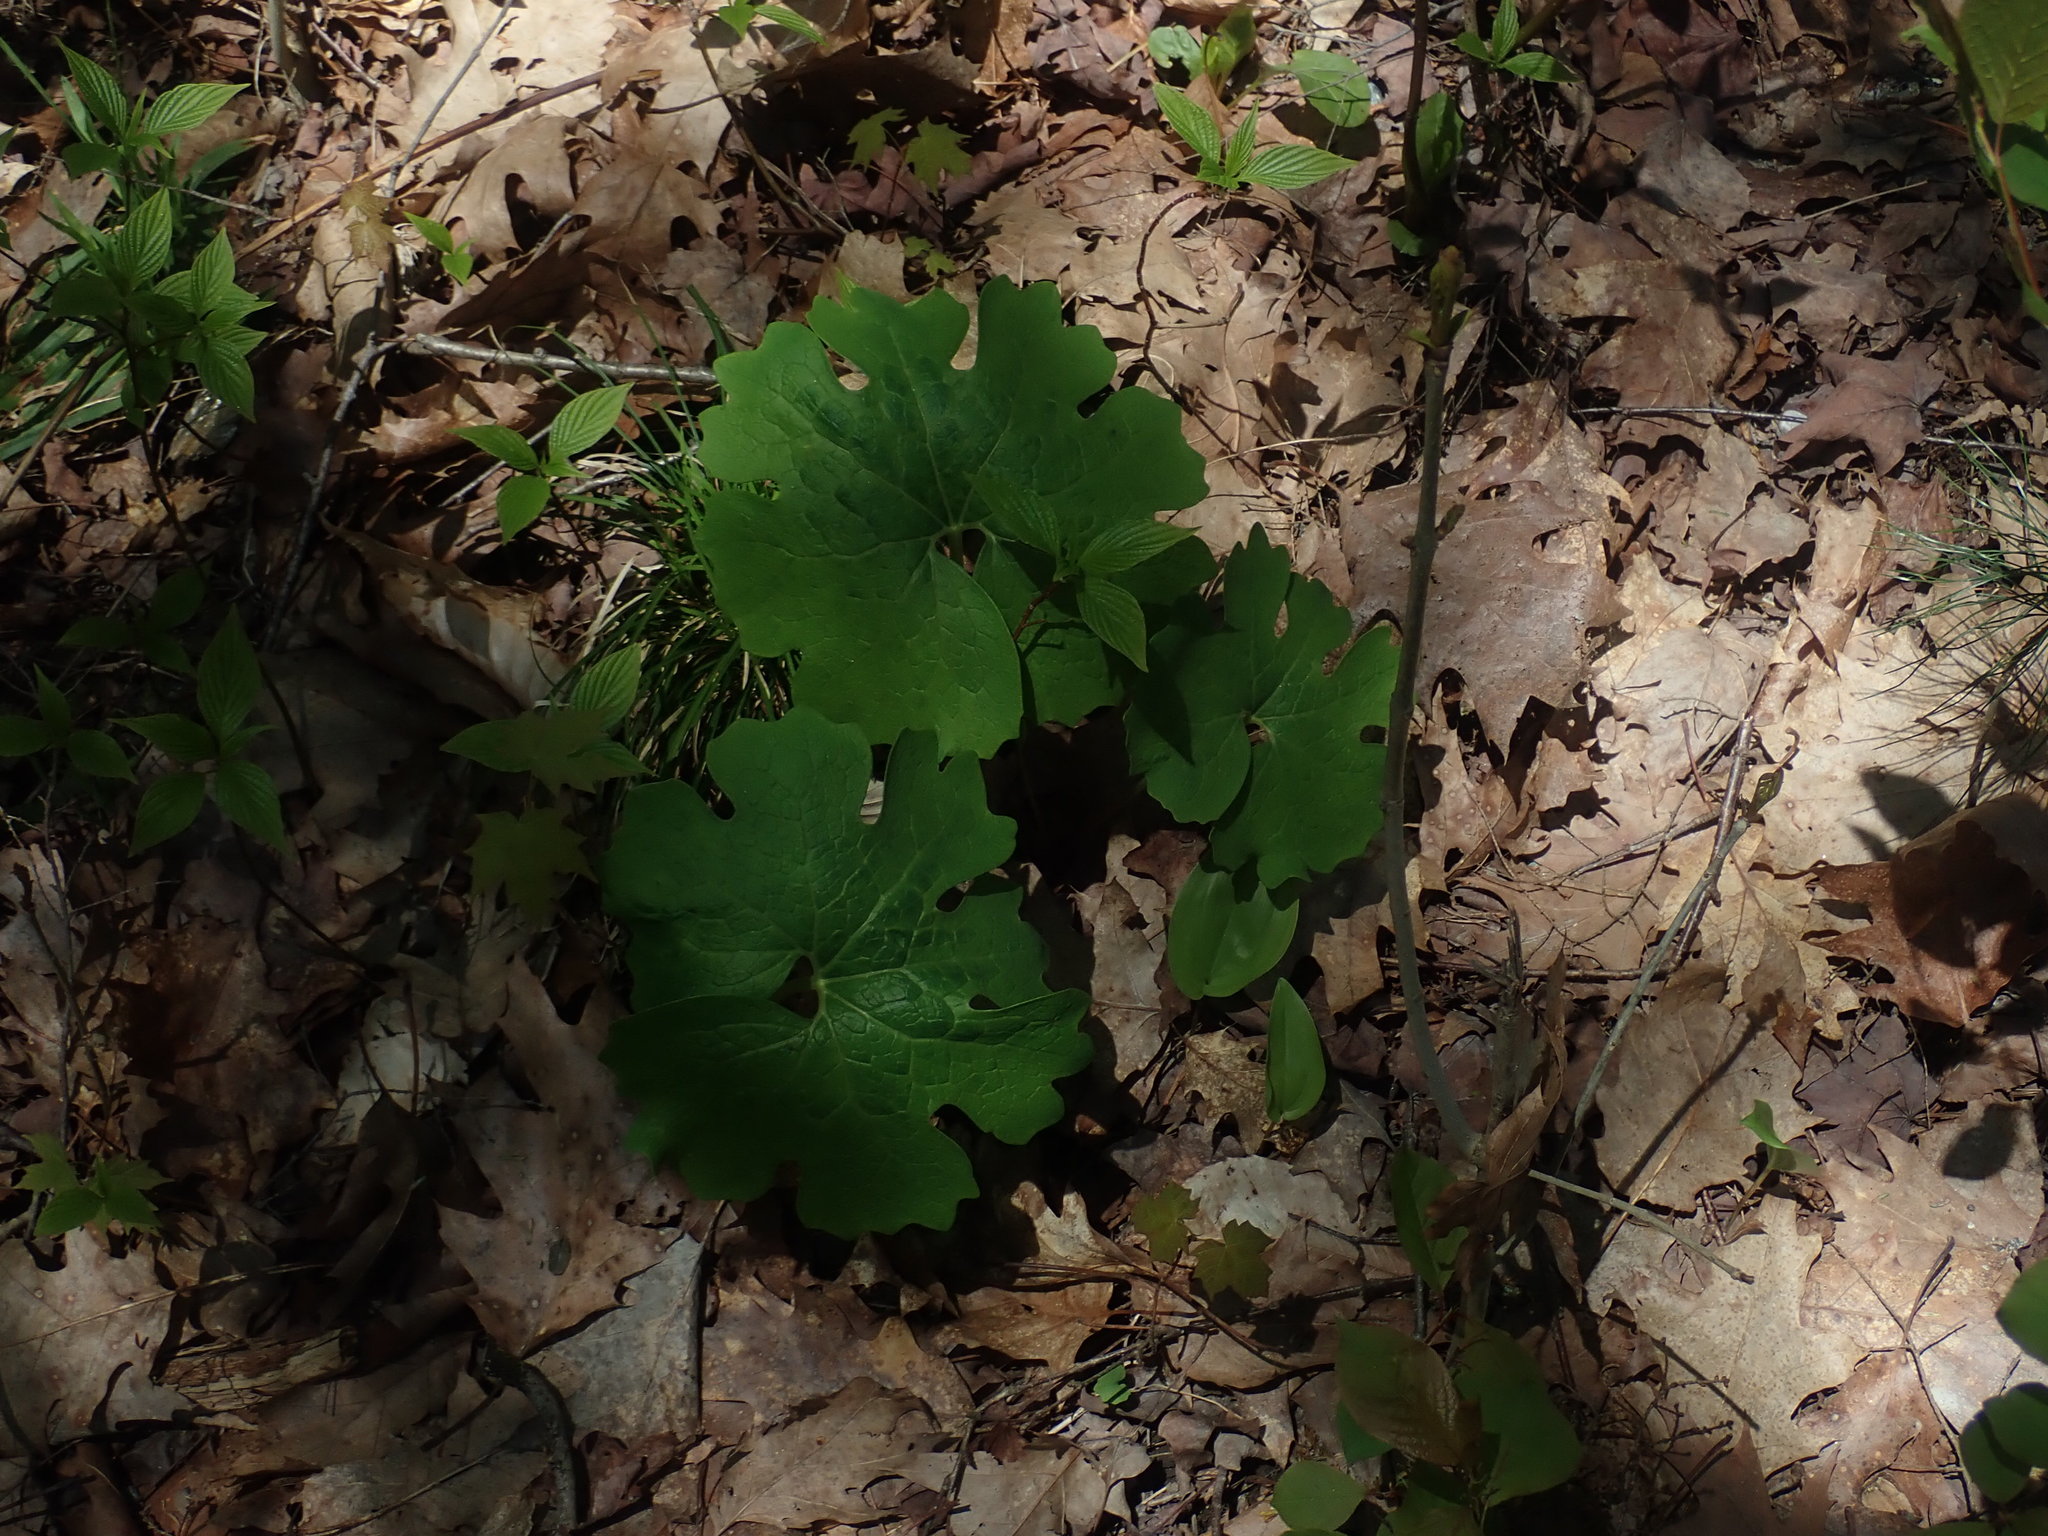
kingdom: Plantae
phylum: Tracheophyta
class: Magnoliopsida
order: Ranunculales
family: Papaveraceae
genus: Sanguinaria
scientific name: Sanguinaria canadensis
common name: Bloodroot
